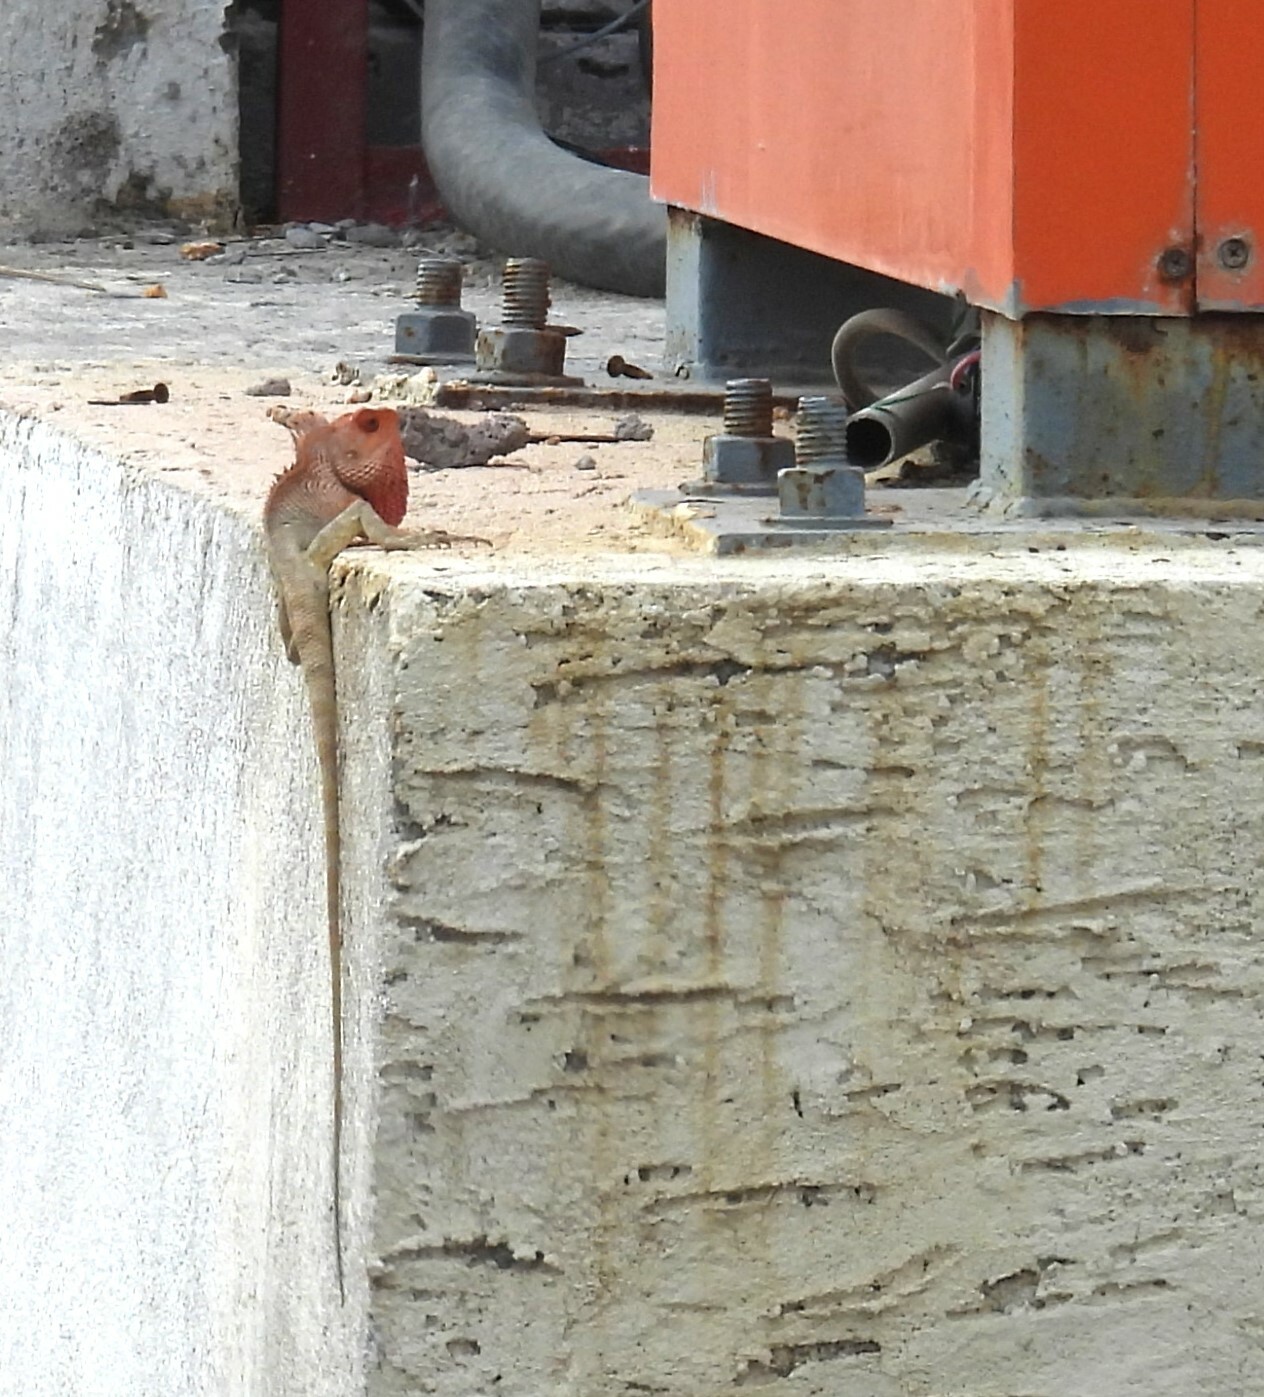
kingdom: Animalia
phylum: Chordata
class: Squamata
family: Agamidae
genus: Calotes
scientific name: Calotes versicolor
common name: Oriental garden lizard
